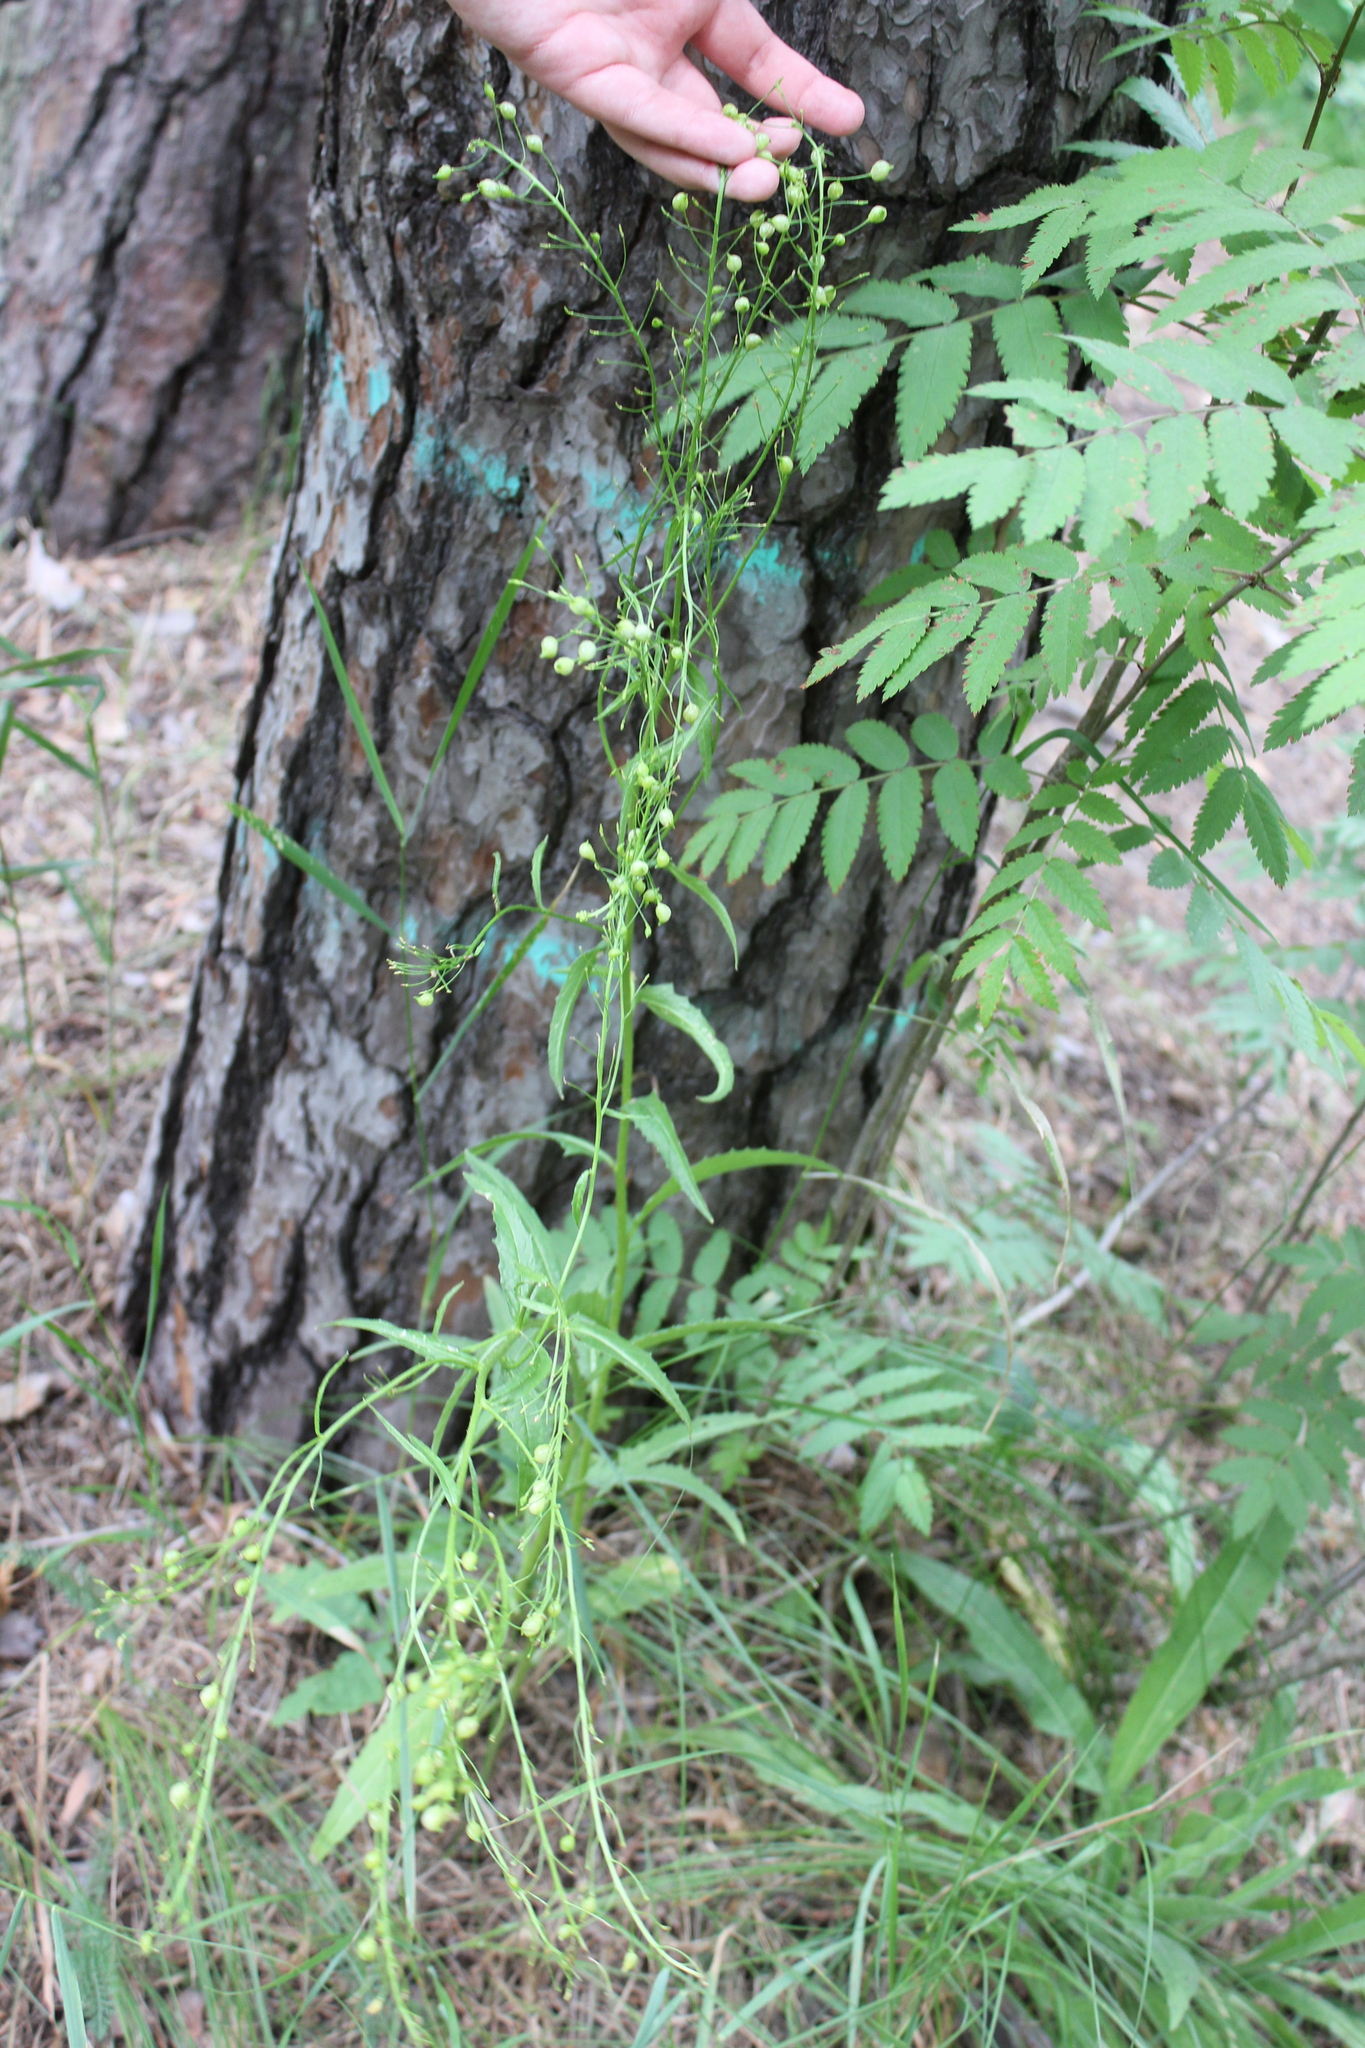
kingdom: Plantae
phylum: Tracheophyta
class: Magnoliopsida
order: Brassicales
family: Brassicaceae
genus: Bunias
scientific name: Bunias orientalis
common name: Warty-cabbage
